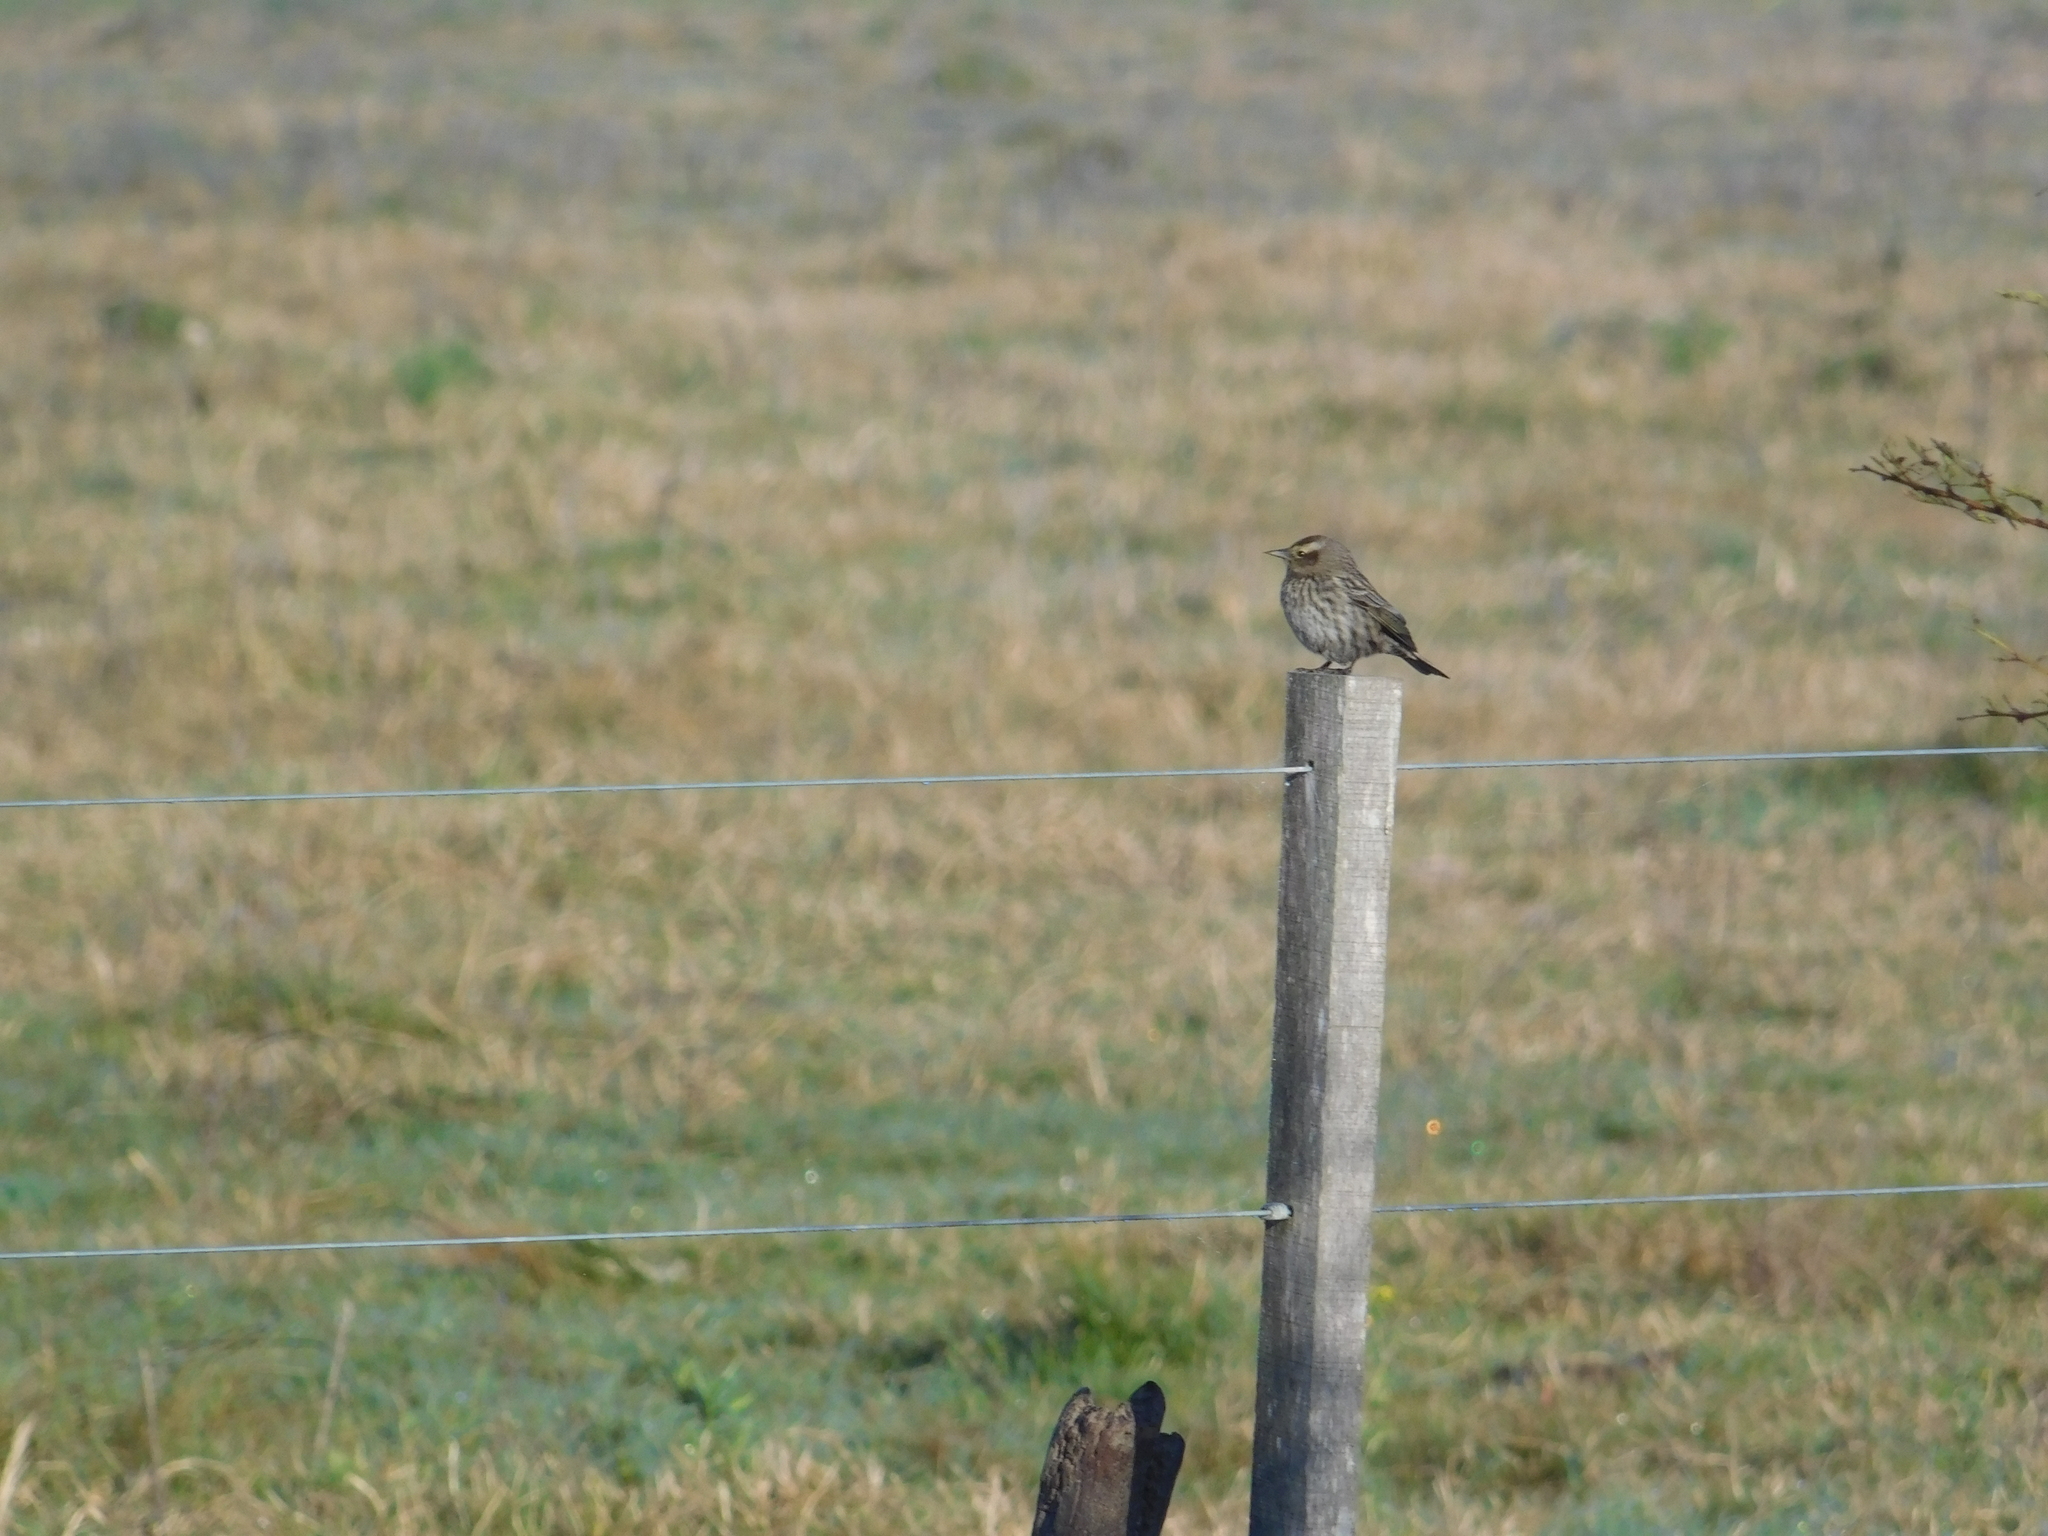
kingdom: Animalia
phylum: Chordata
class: Aves
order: Passeriformes
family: Icteridae
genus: Agelasticus
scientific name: Agelasticus thilius
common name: Yellow-winged blackbird
